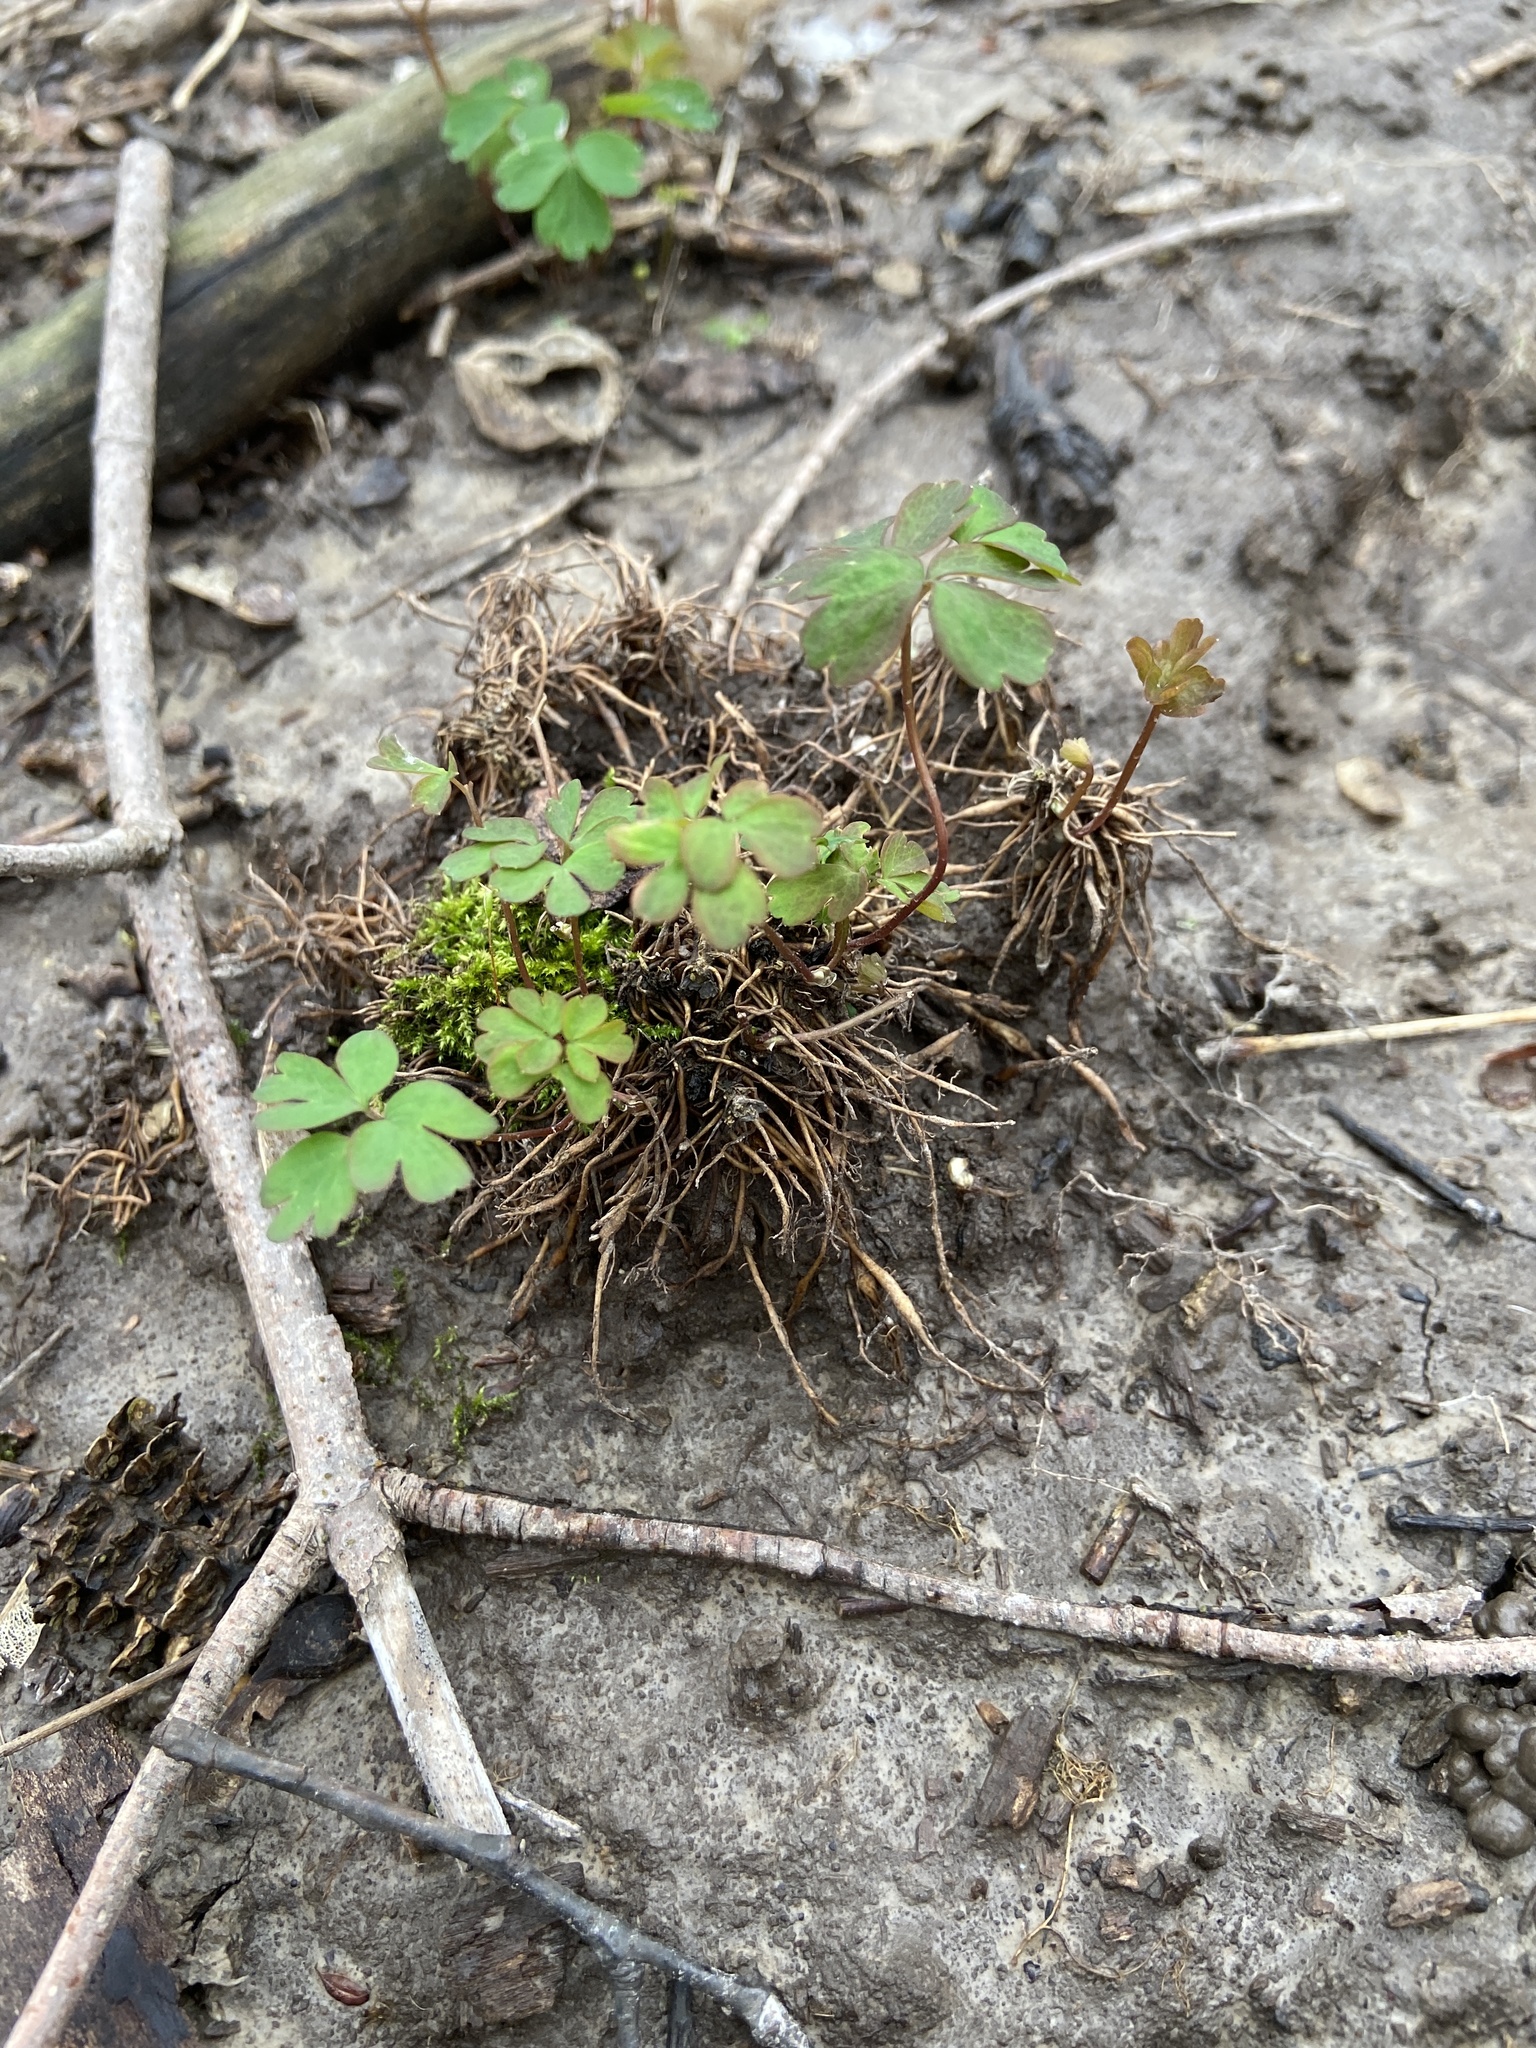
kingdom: Plantae
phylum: Tracheophyta
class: Magnoliopsida
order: Ranunculales
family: Ranunculaceae
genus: Aquilegia
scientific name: Aquilegia canadensis
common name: American columbine
